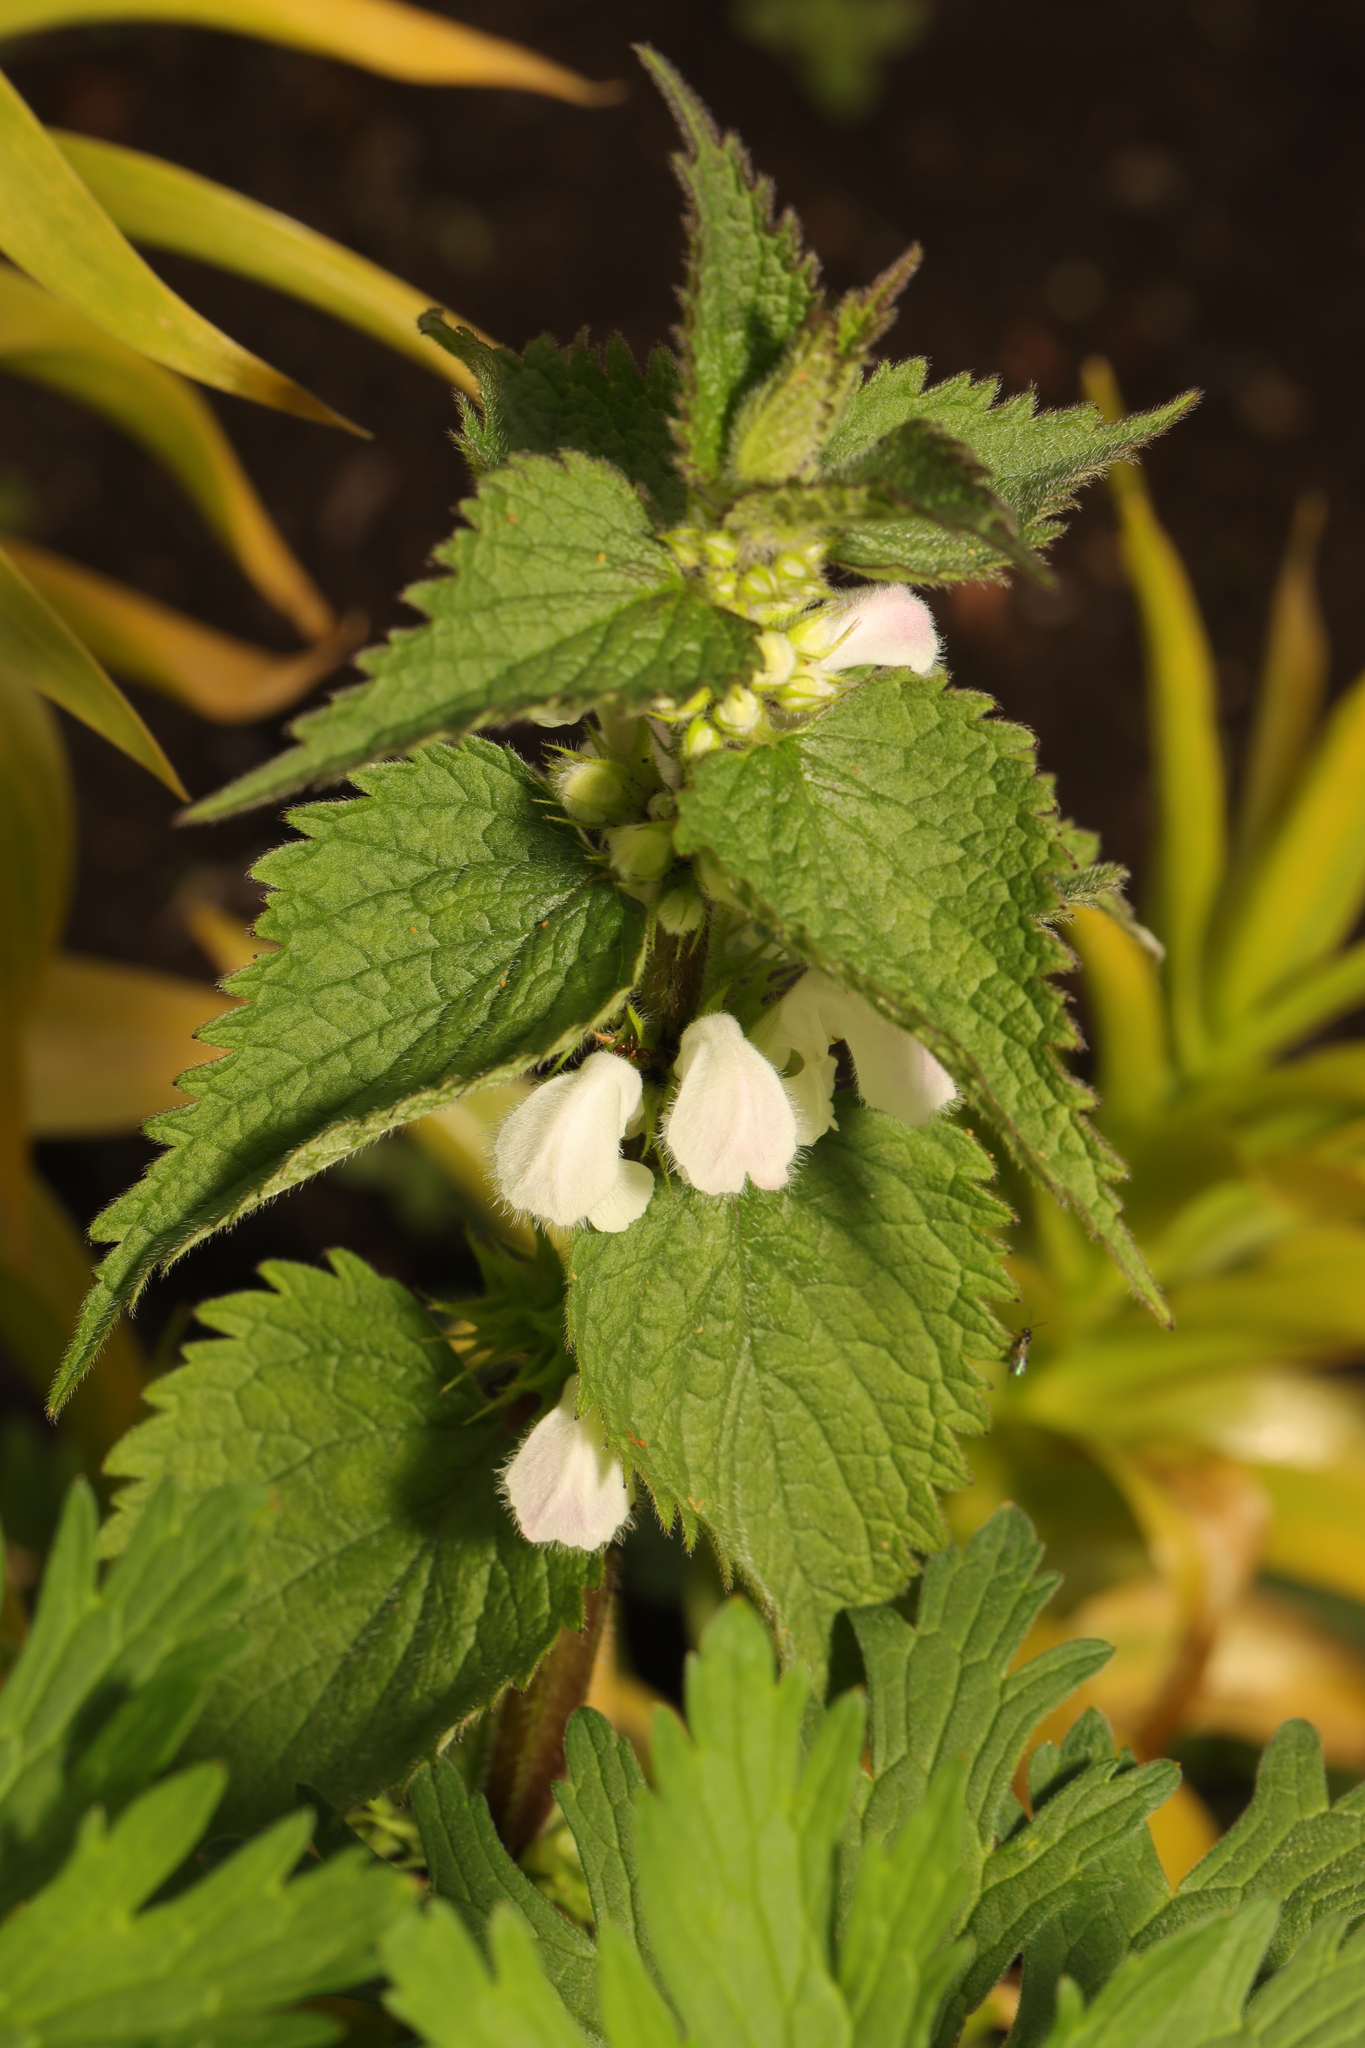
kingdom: Plantae
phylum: Tracheophyta
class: Magnoliopsida
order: Lamiales
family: Lamiaceae
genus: Lamium
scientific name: Lamium album
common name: White dead-nettle
